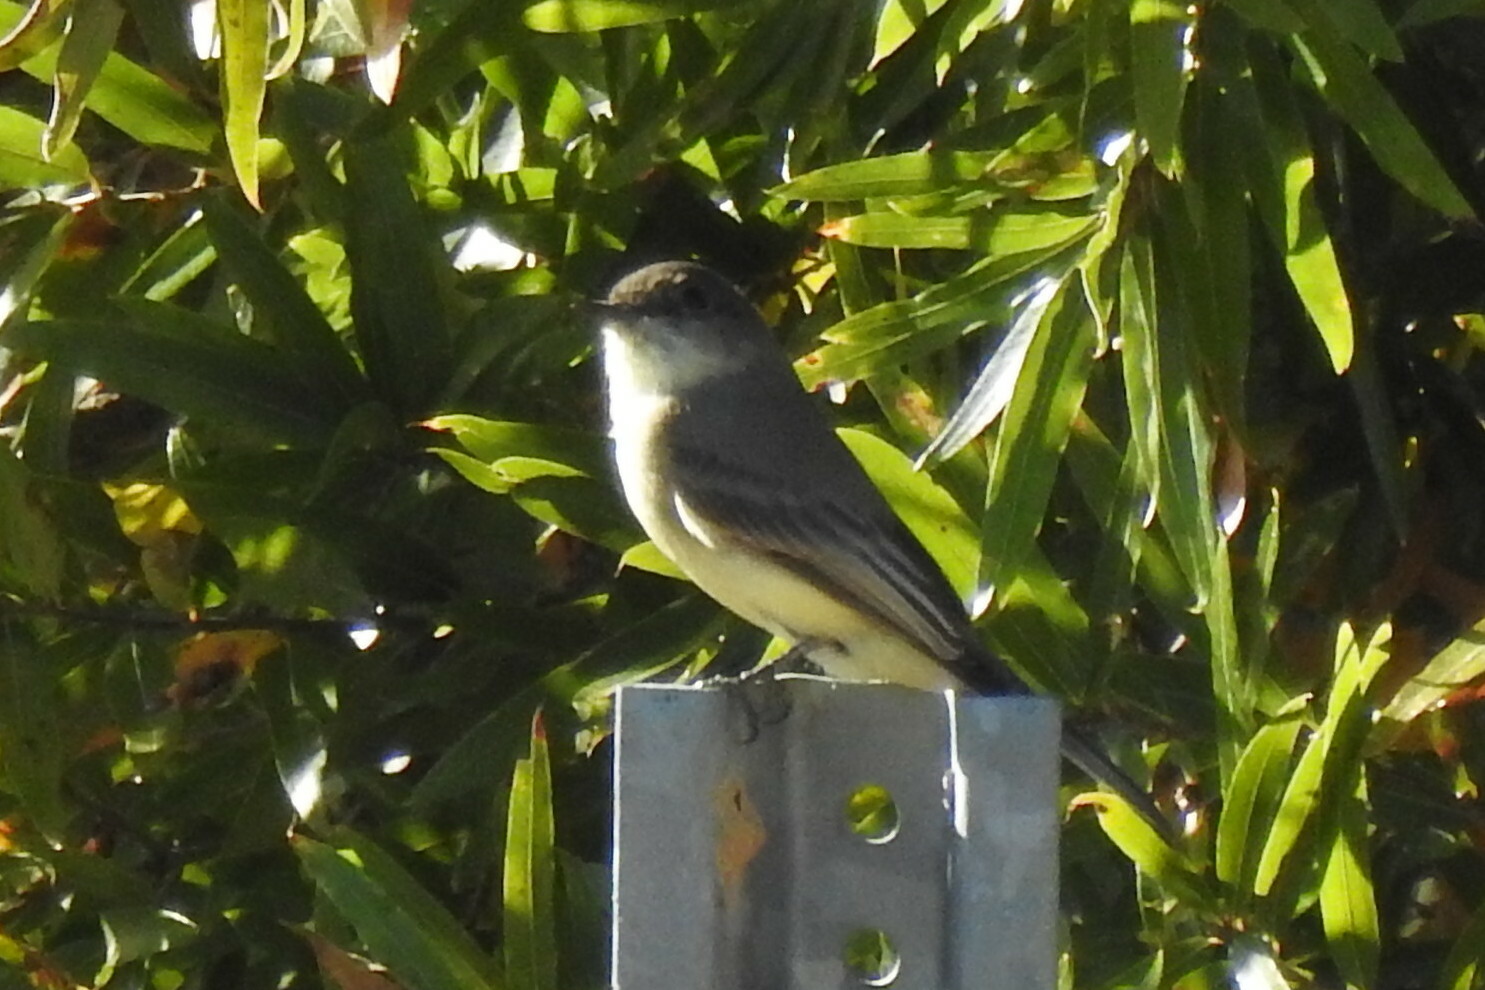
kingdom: Animalia
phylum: Chordata
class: Aves
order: Passeriformes
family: Tyrannidae
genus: Sayornis
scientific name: Sayornis phoebe
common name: Eastern phoebe
